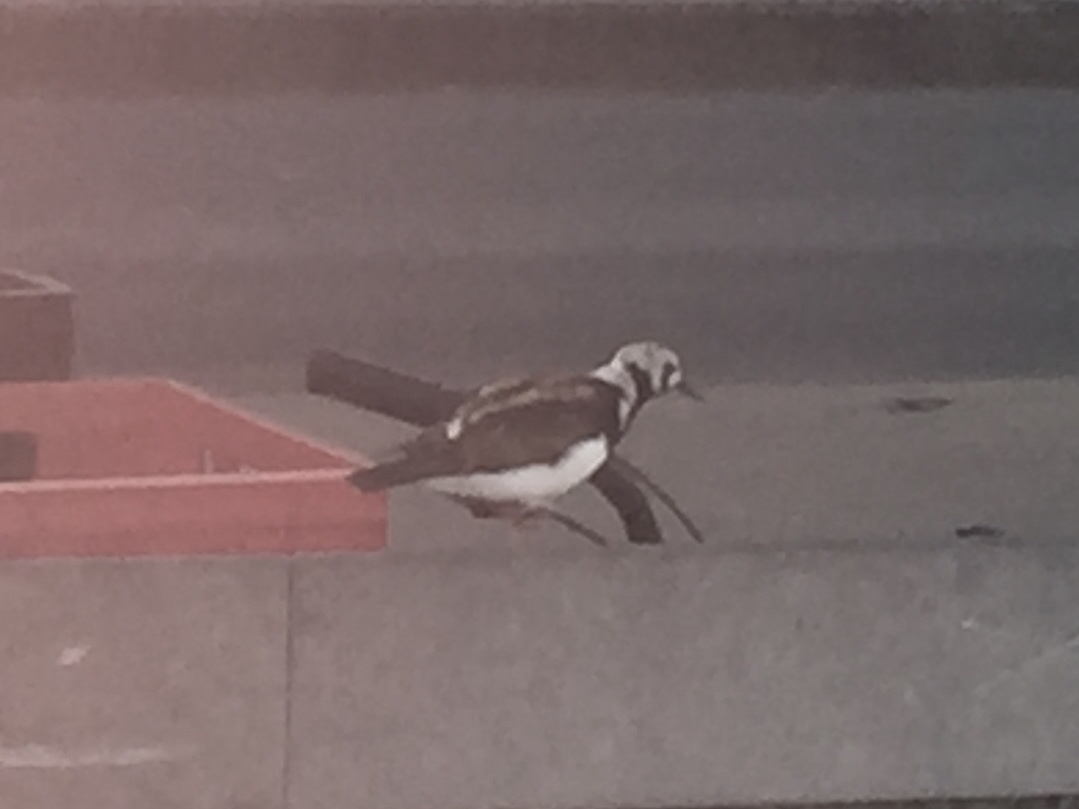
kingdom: Animalia
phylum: Chordata
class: Aves
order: Charadriiformes
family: Scolopacidae
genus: Arenaria
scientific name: Arenaria interpres
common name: Ruddy turnstone
